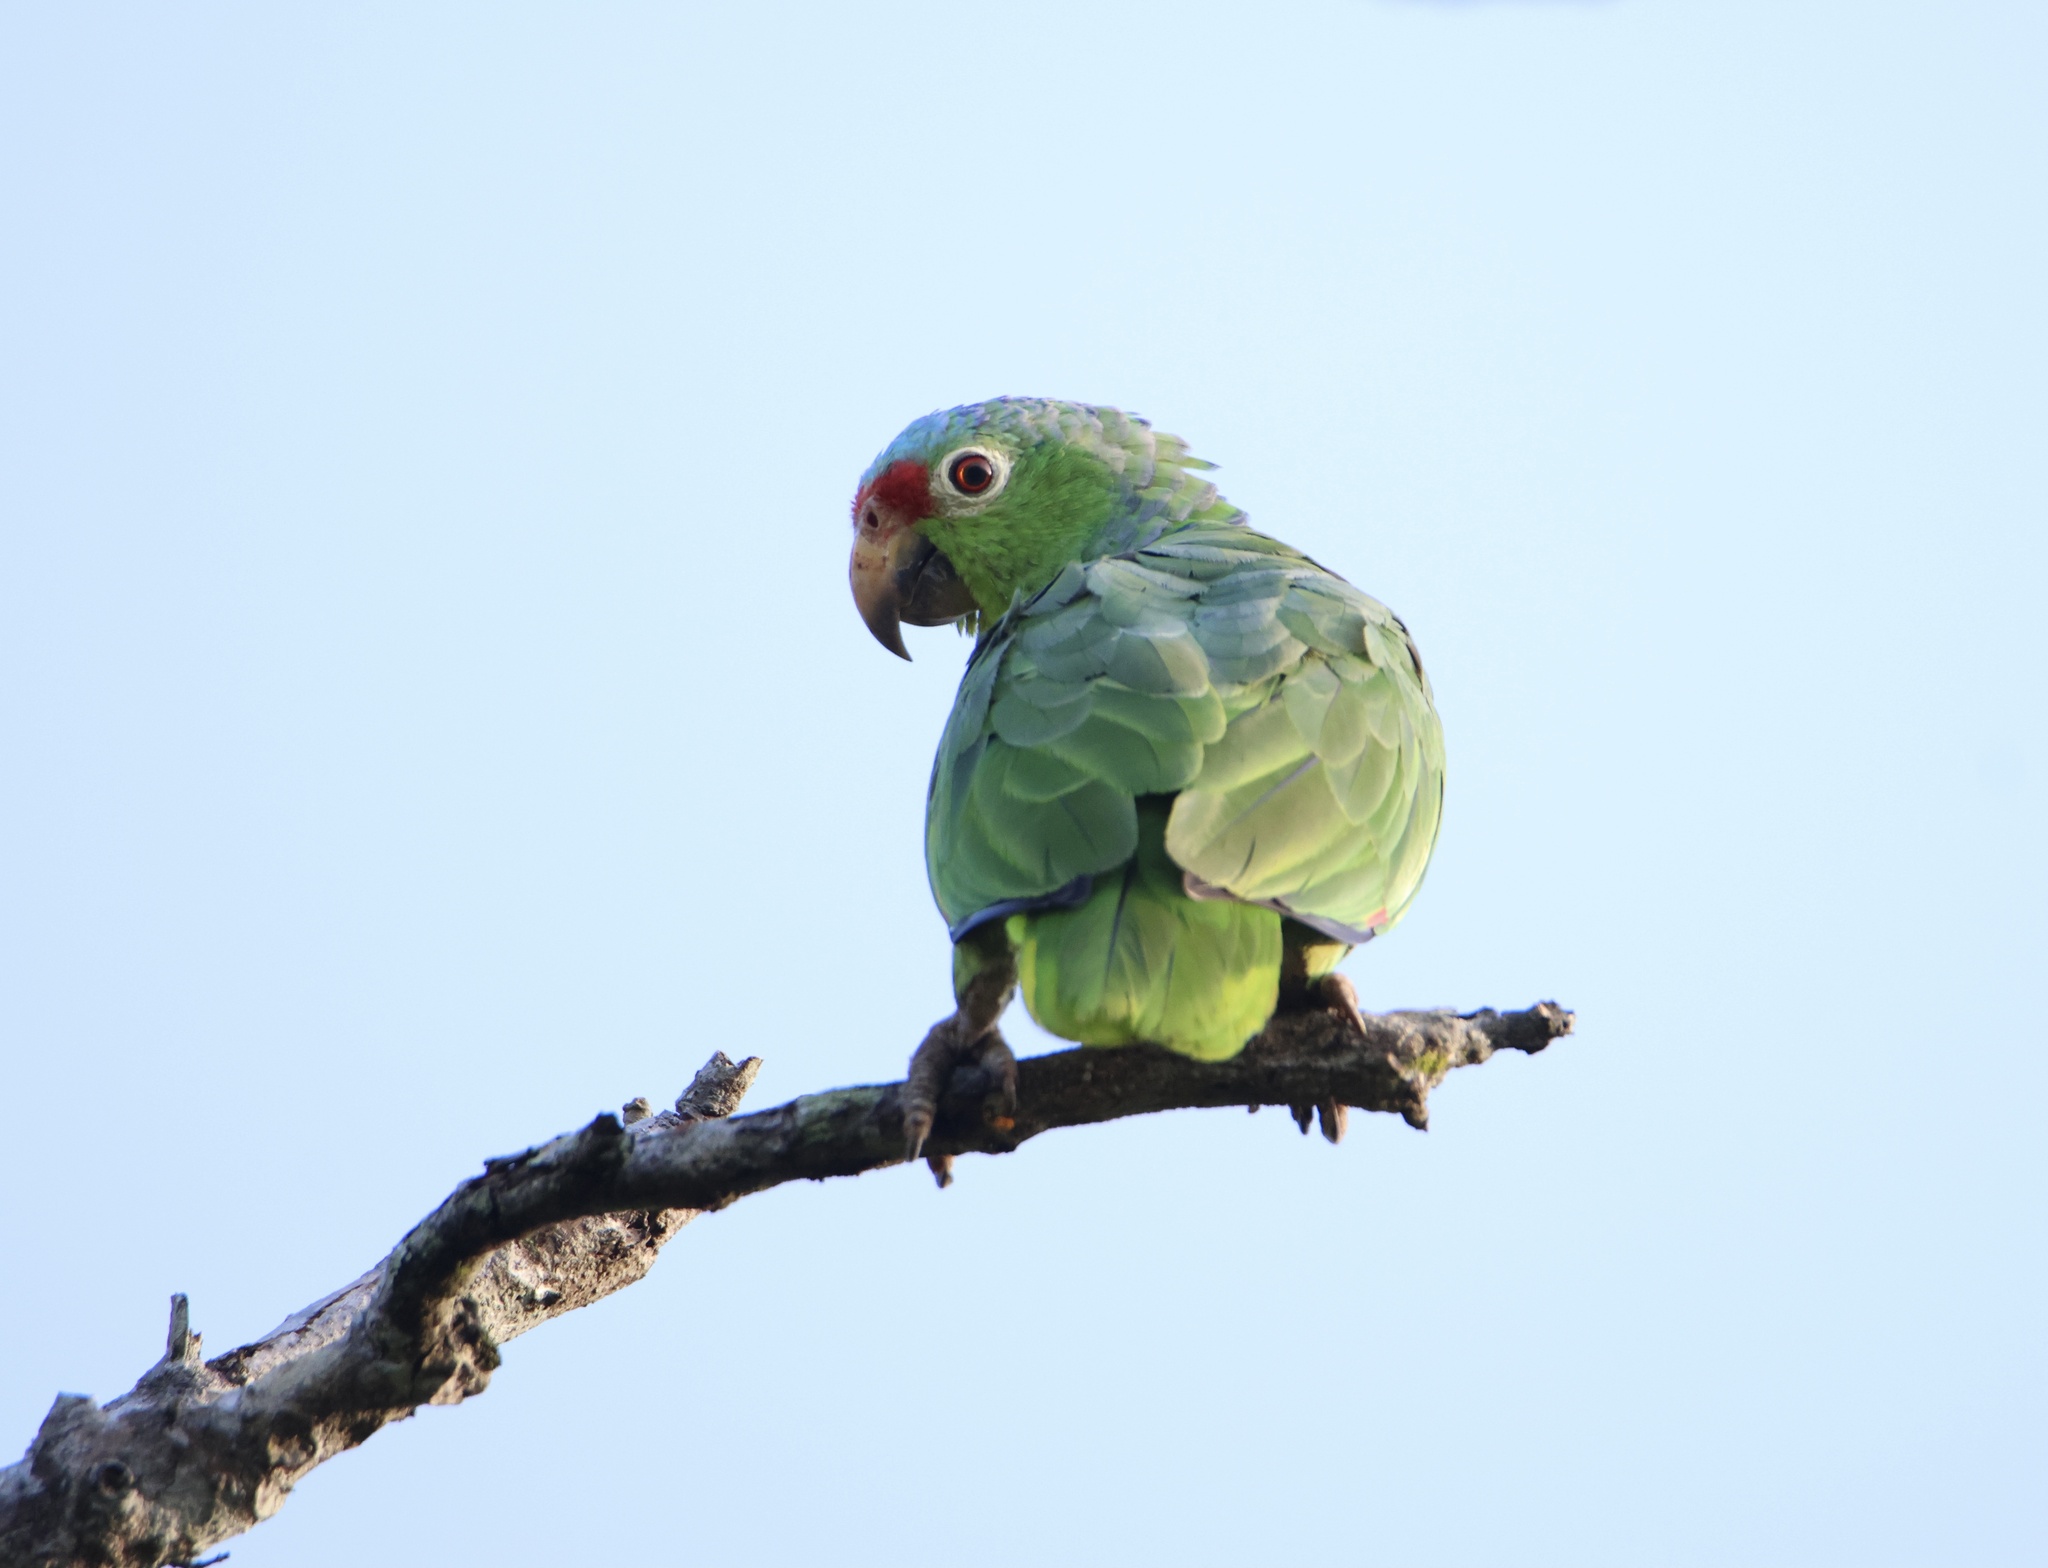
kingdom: Animalia
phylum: Chordata
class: Aves
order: Psittaciformes
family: Psittacidae
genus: Amazona
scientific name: Amazona autumnalis
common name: Red-lored amazon
